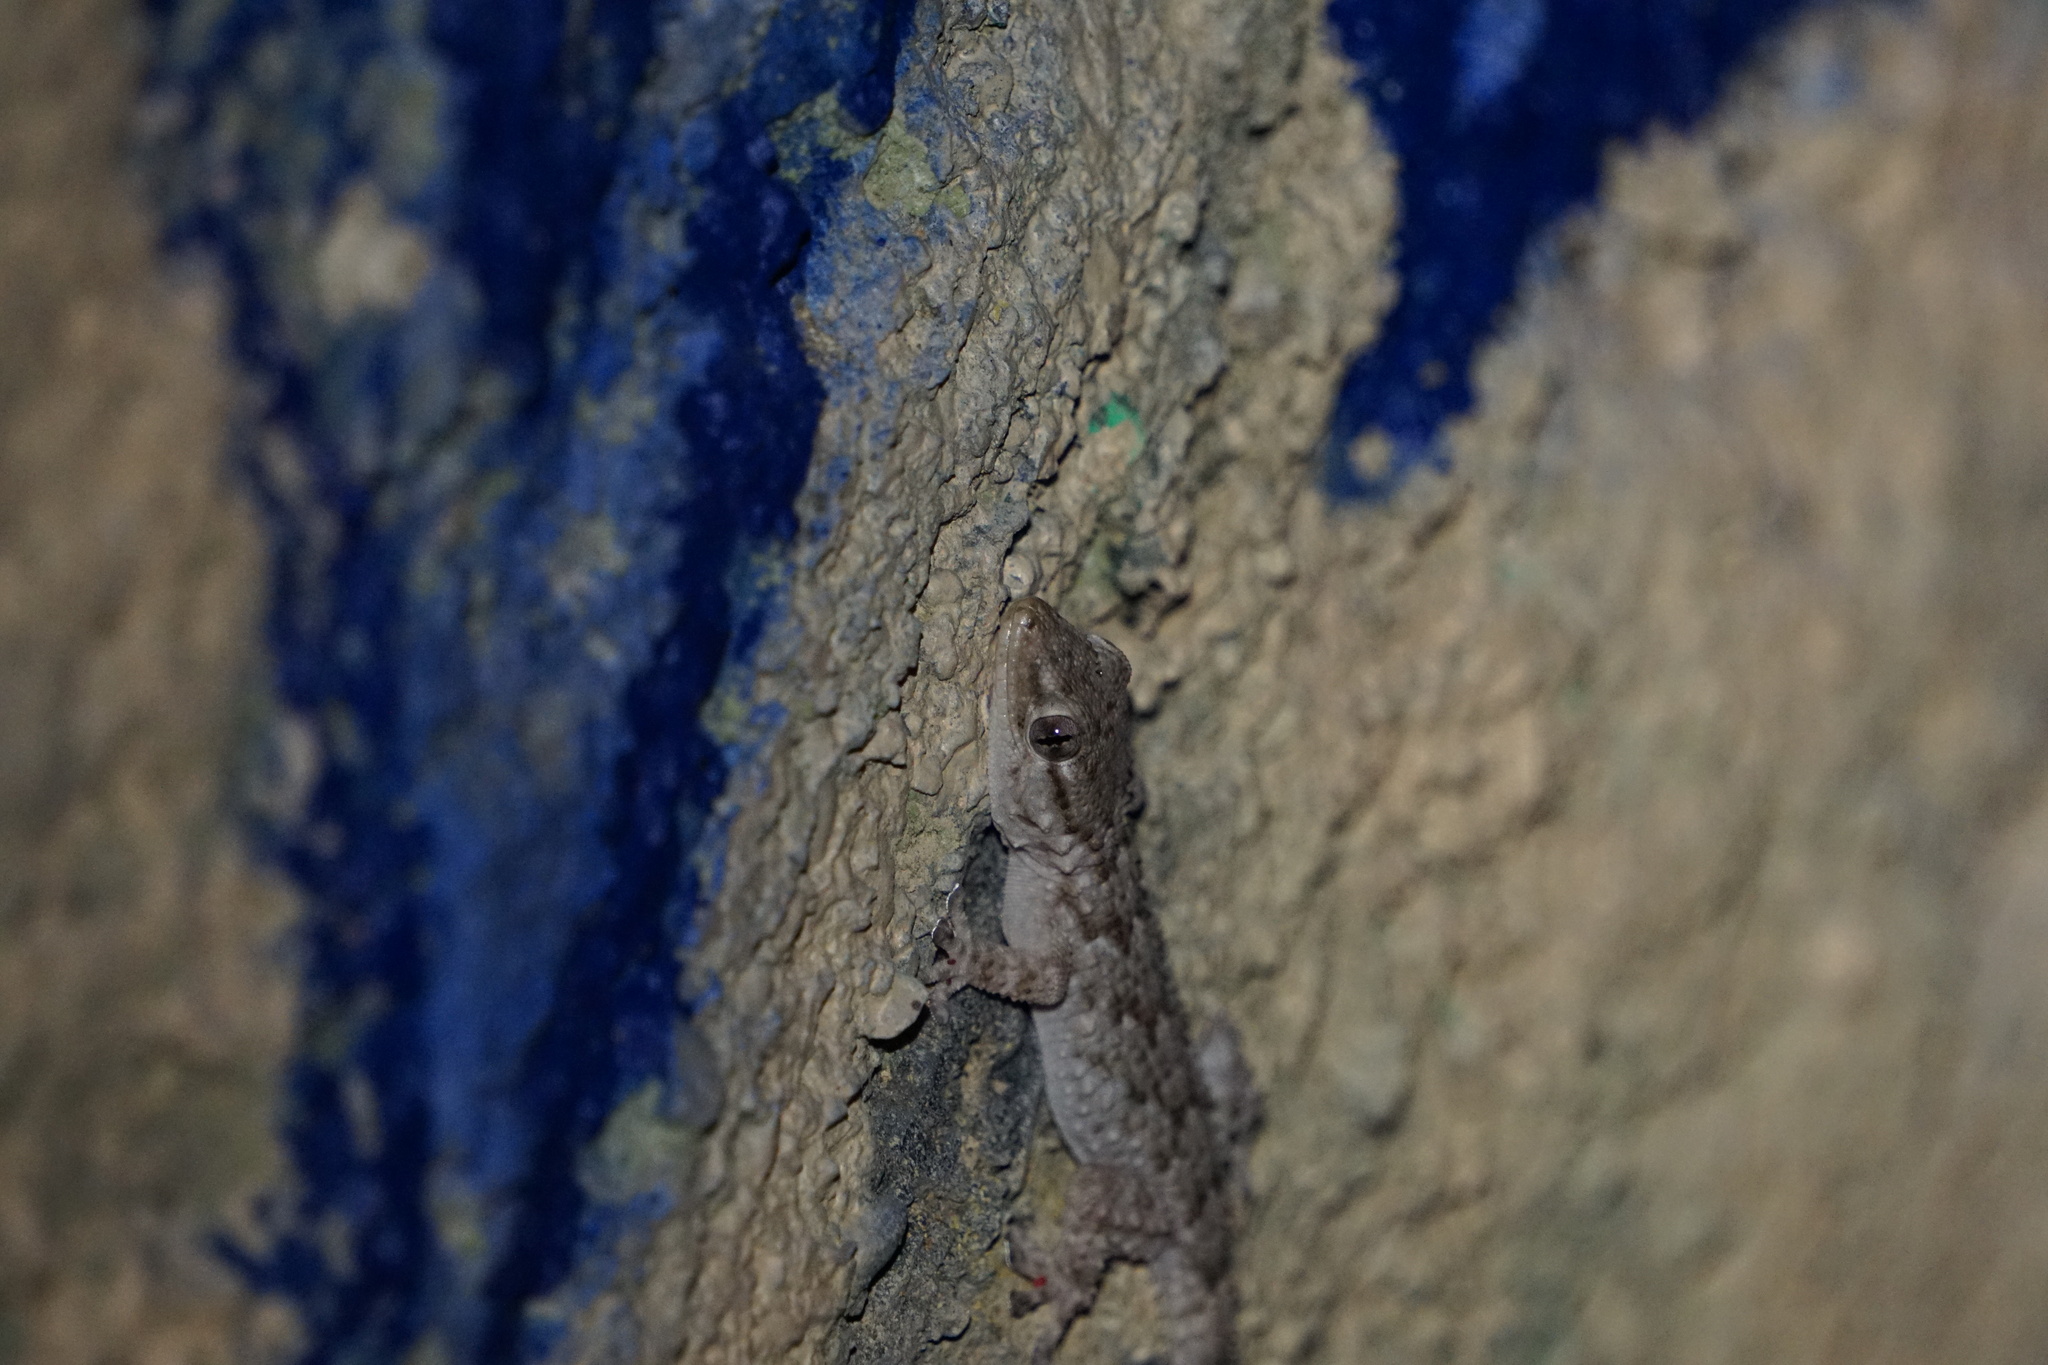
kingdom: Animalia
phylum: Chordata
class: Squamata
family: Phyllodactylidae
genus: Tarentola
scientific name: Tarentola mauritanica
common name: Moorish gecko
